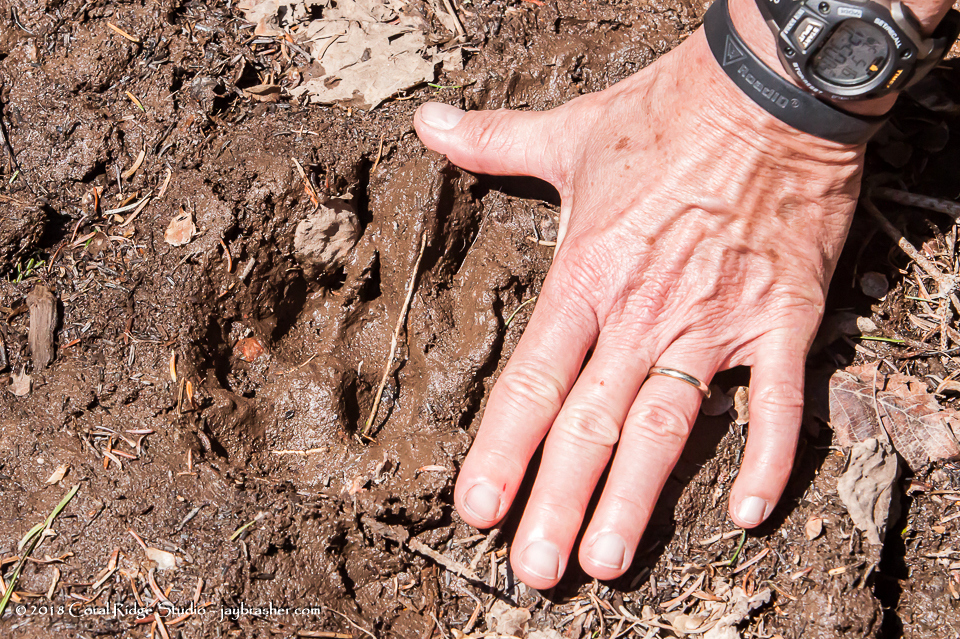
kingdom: Animalia
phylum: Chordata
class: Mammalia
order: Carnivora
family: Canidae
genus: Canis
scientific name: Canis lupus
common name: Gray wolf
